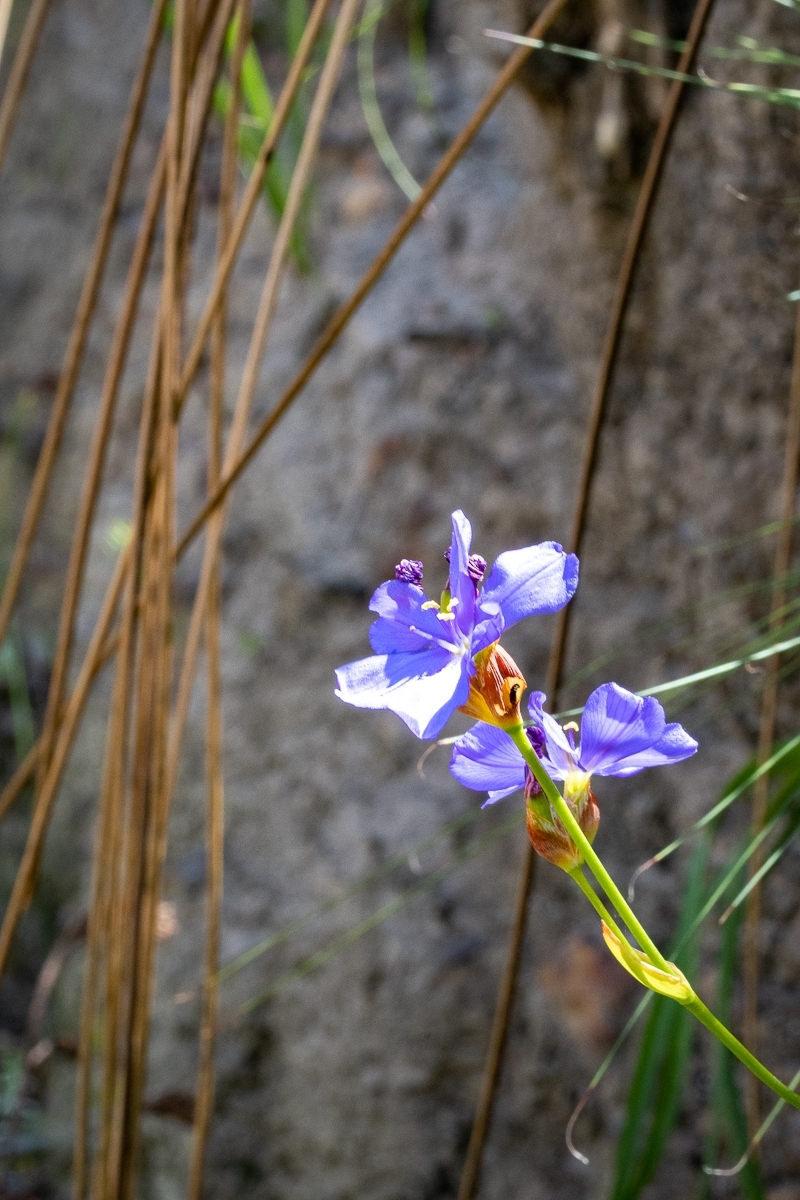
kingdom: Plantae
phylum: Tracheophyta
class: Liliopsida
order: Asparagales
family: Iridaceae
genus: Aristea
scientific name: Aristea juncifolia
